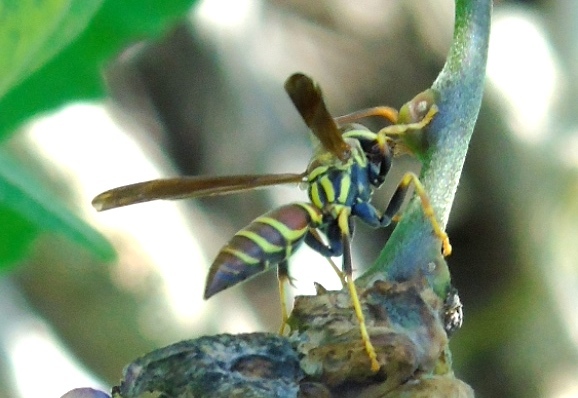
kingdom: Animalia
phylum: Arthropoda
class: Insecta
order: Hymenoptera
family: Eumenidae
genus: Polistes
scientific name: Polistes instabilis
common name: Unstable paper wasp
